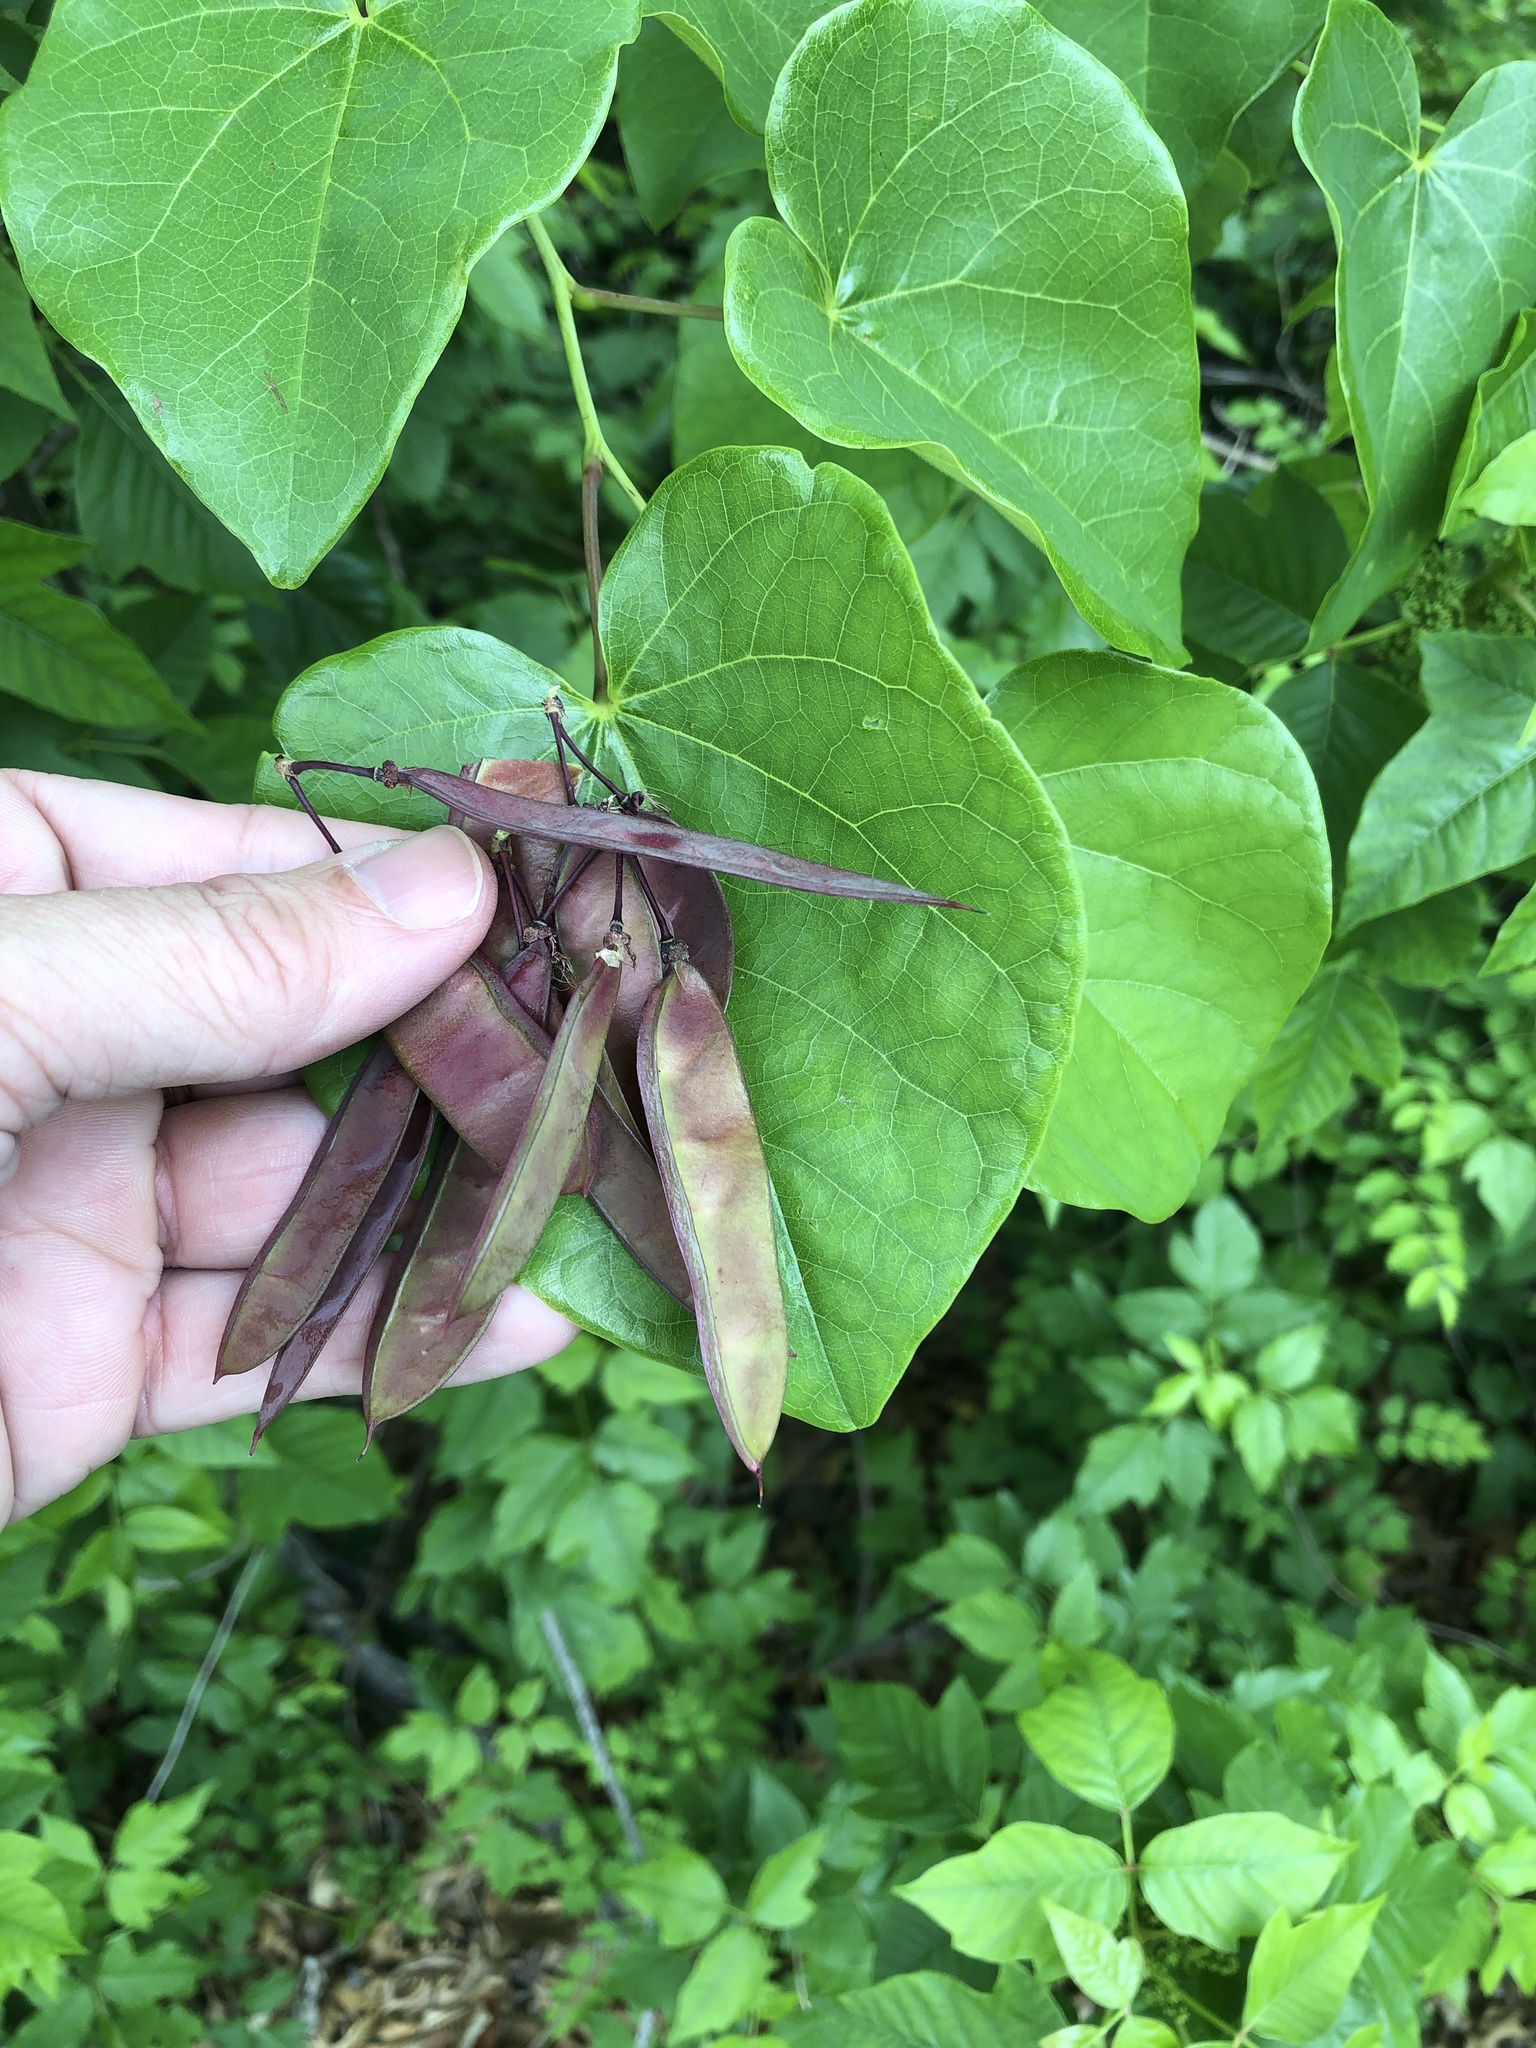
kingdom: Plantae
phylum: Tracheophyta
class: Magnoliopsida
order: Fabales
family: Fabaceae
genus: Cercis
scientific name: Cercis canadensis
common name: Eastern redbud
